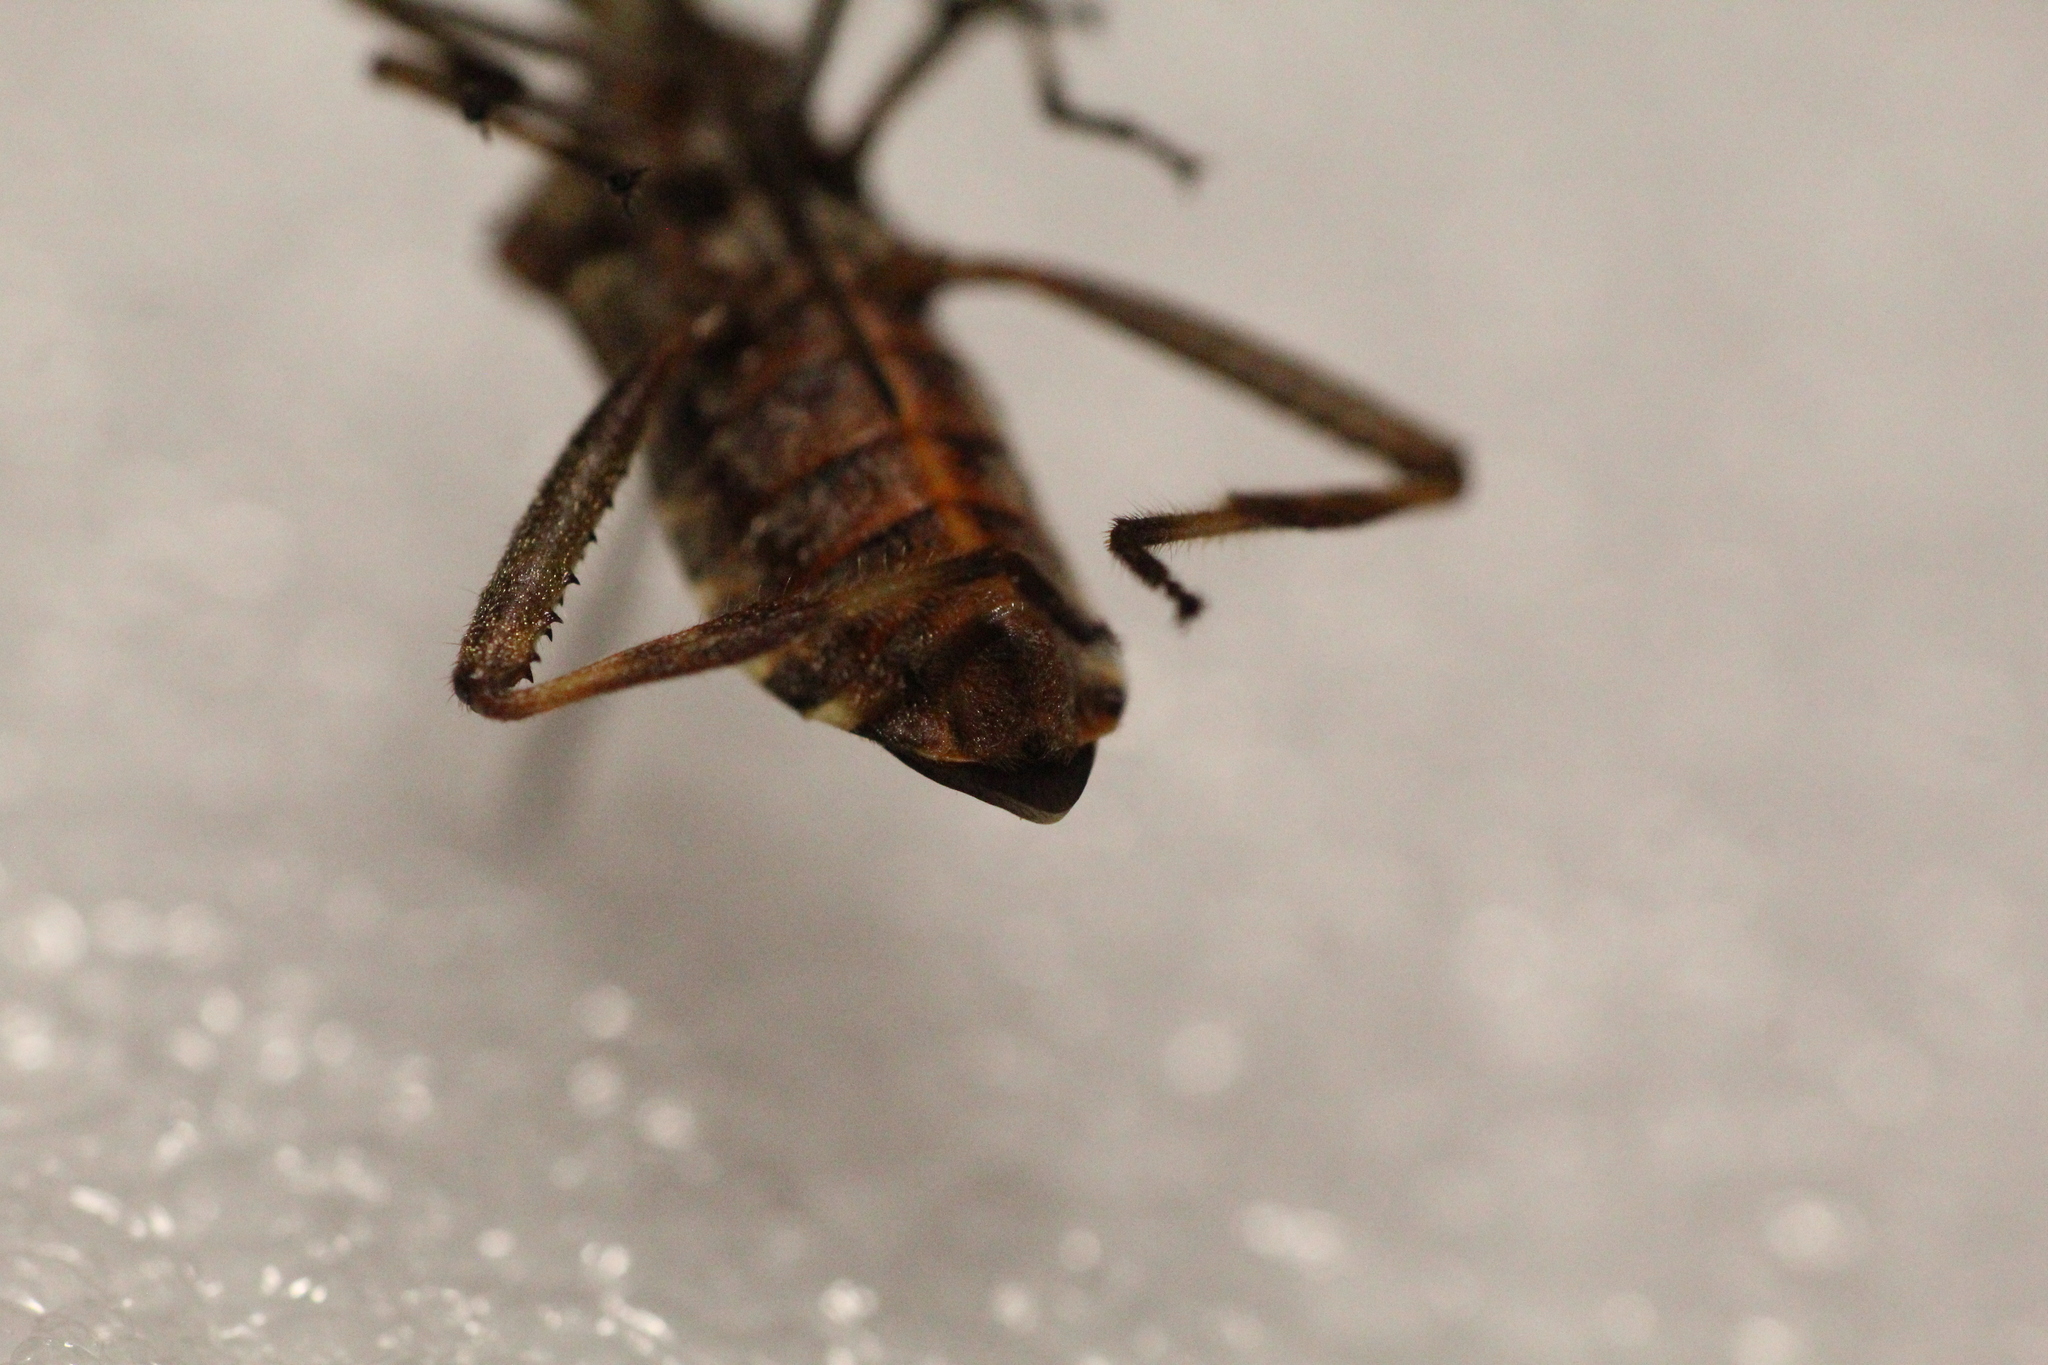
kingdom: Animalia
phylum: Arthropoda
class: Insecta
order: Hemiptera
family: Coreidae
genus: Leptoglossus
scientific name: Leptoglossus occidentalis
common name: Western conifer-seed bug
